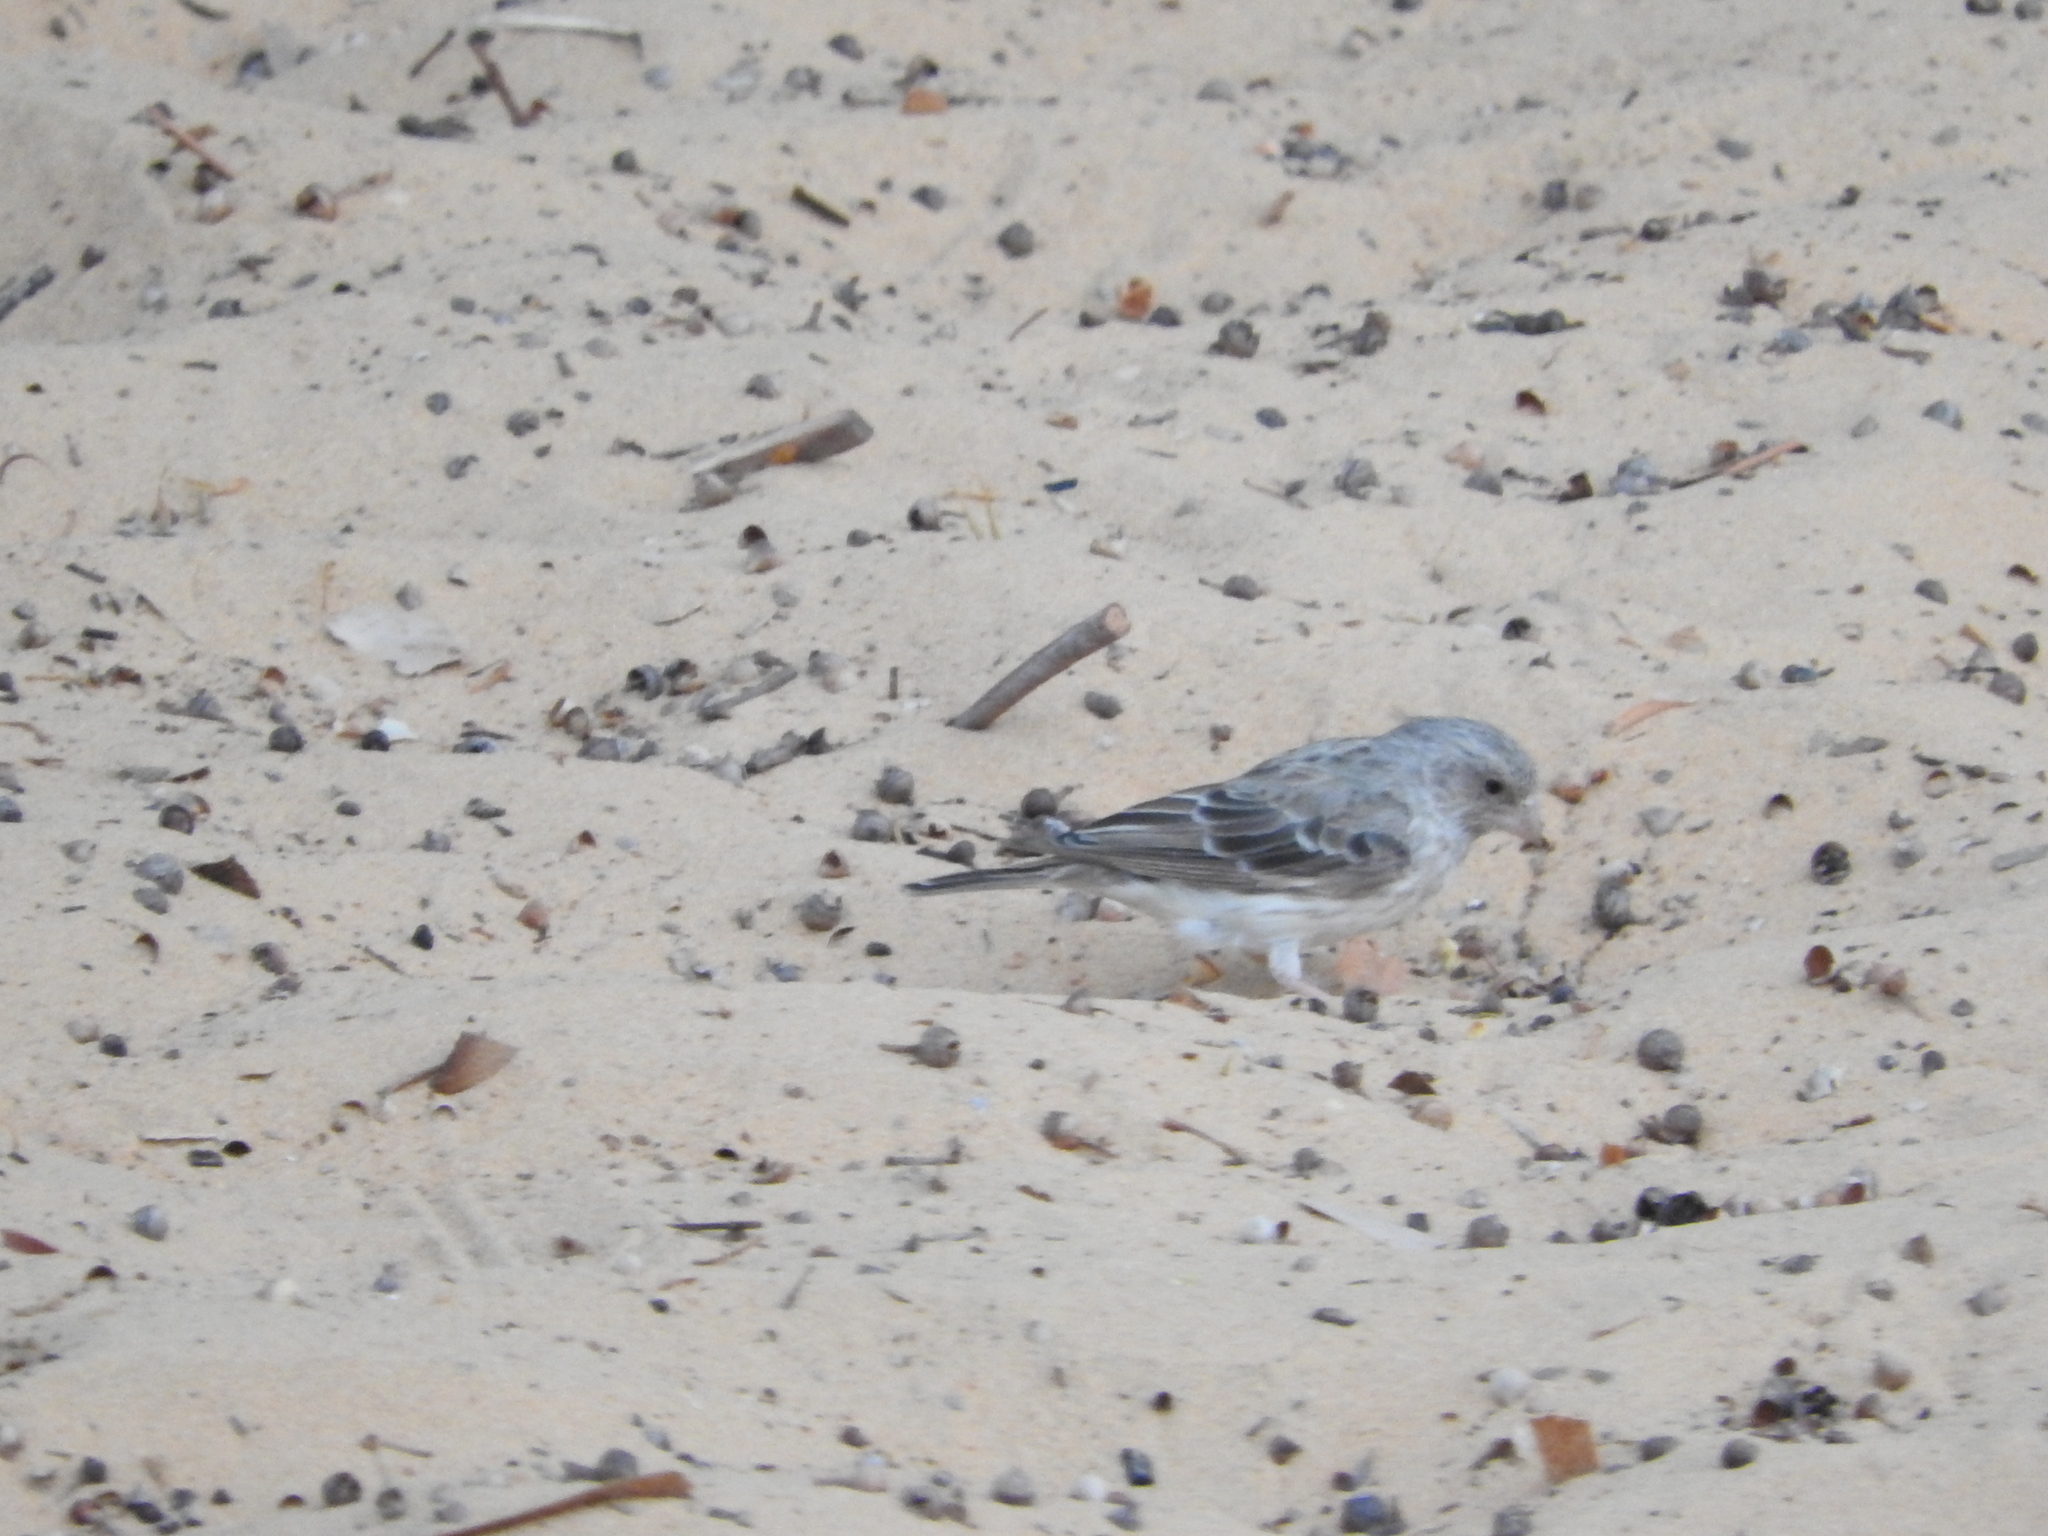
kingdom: Animalia
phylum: Chordata
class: Aves
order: Passeriformes
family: Fringillidae
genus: Crithagra
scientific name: Crithagra leucopygia
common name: White-rumped seedeater
